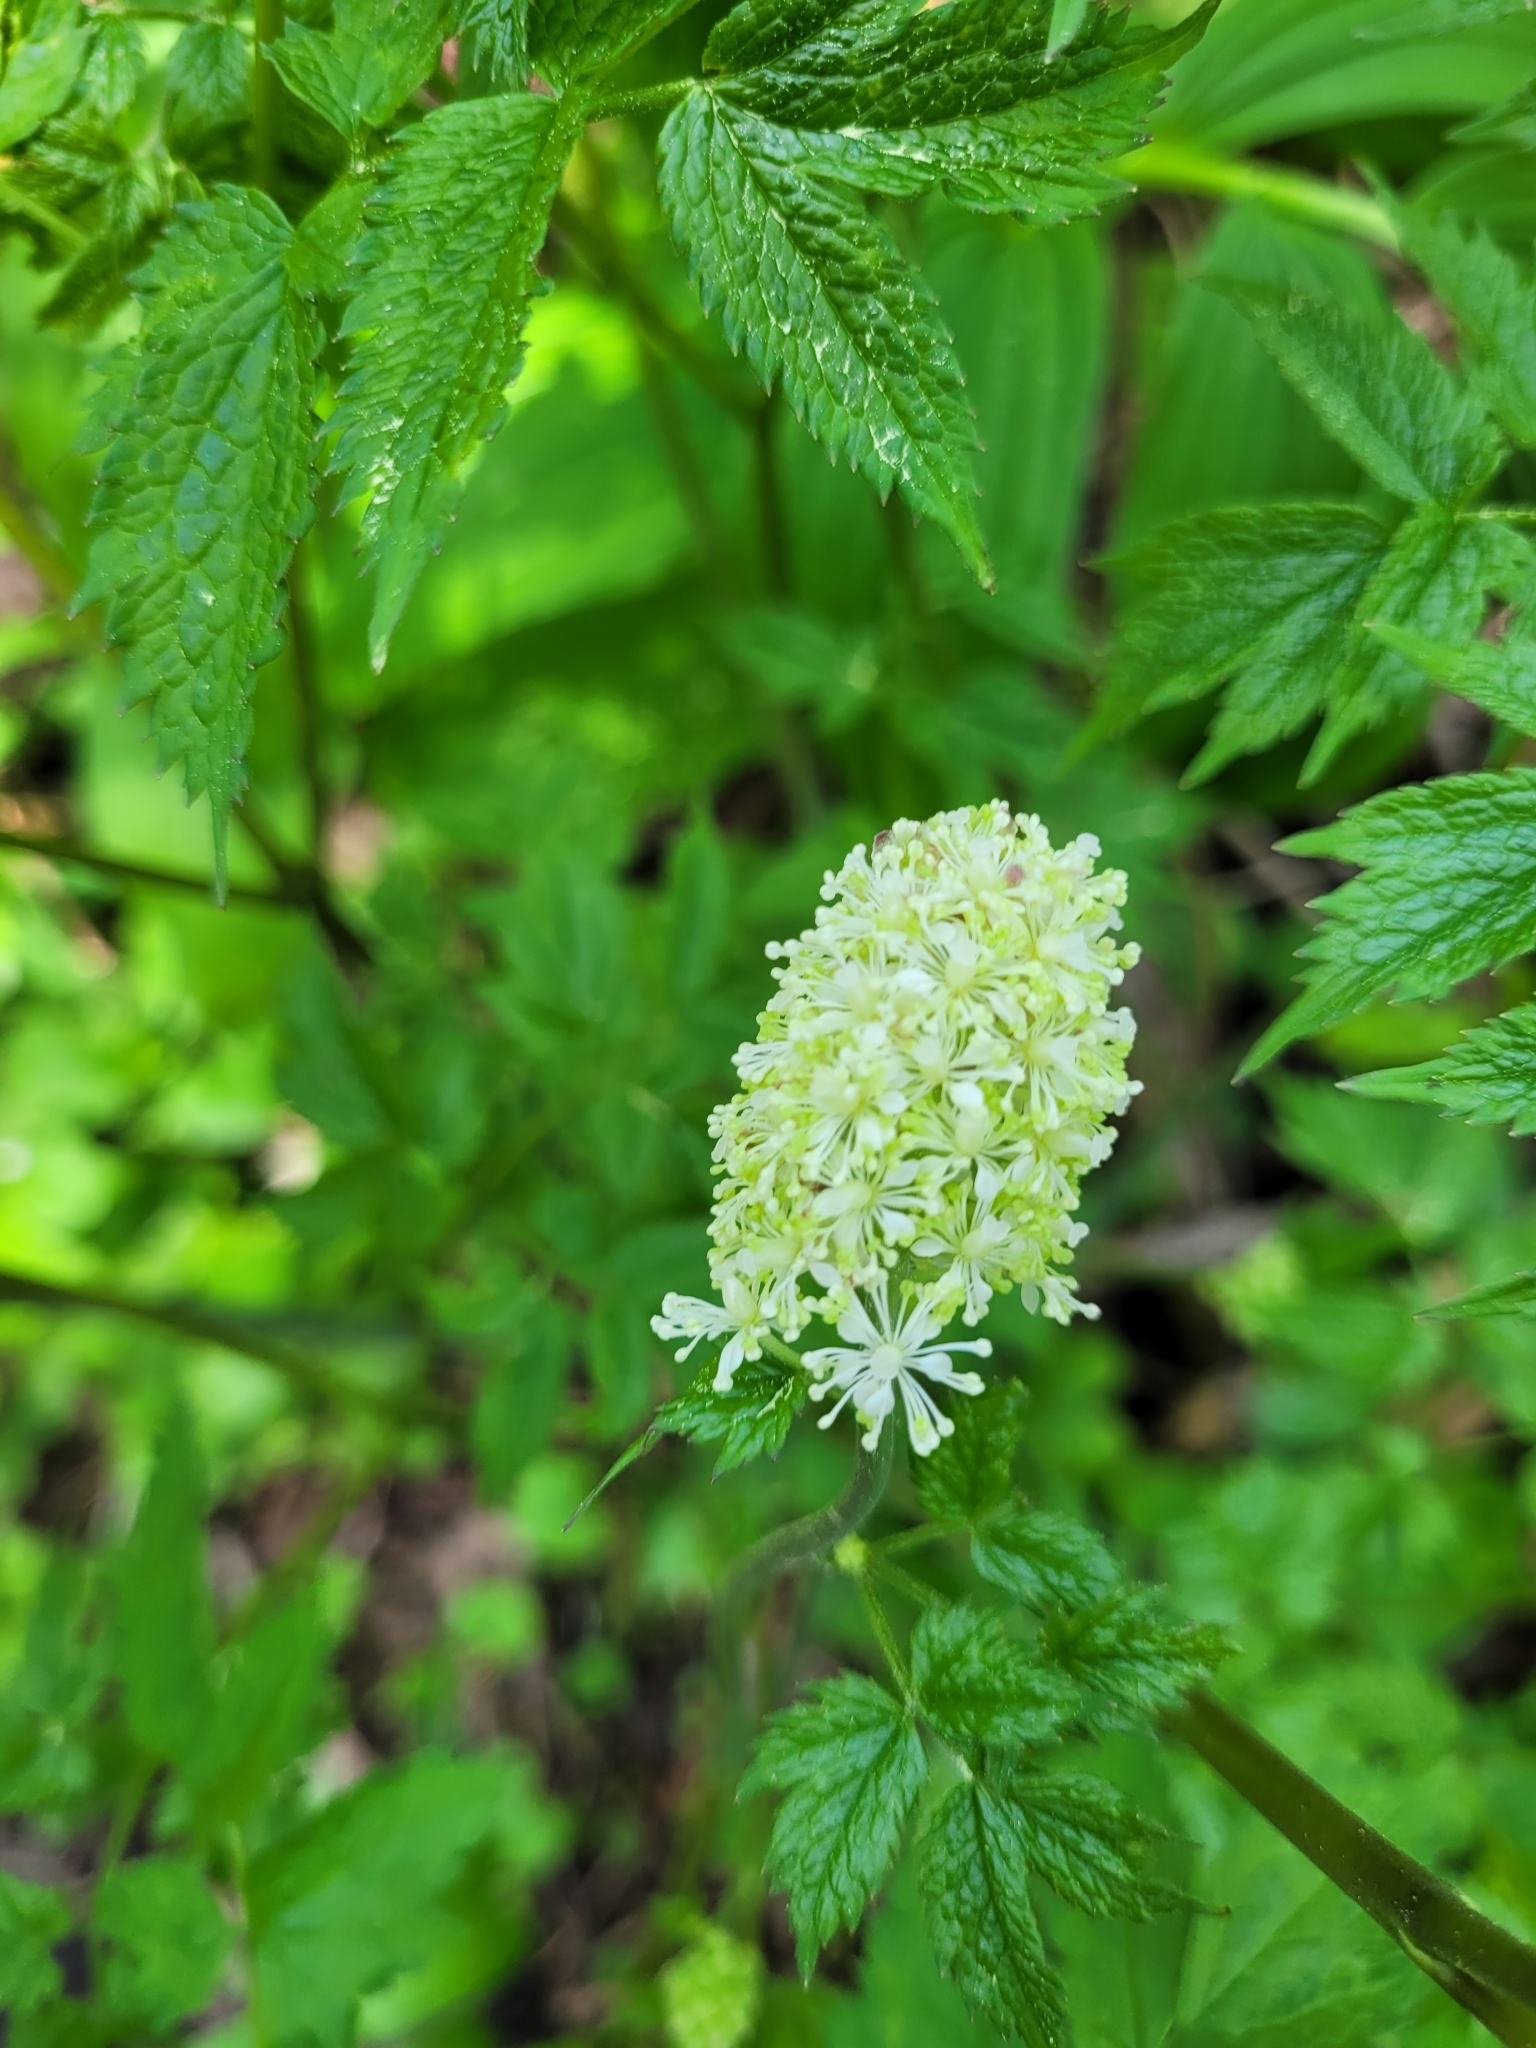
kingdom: Plantae
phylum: Tracheophyta
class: Magnoliopsida
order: Ranunculales
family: Ranunculaceae
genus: Actaea
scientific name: Actaea rubra
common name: Red baneberry
